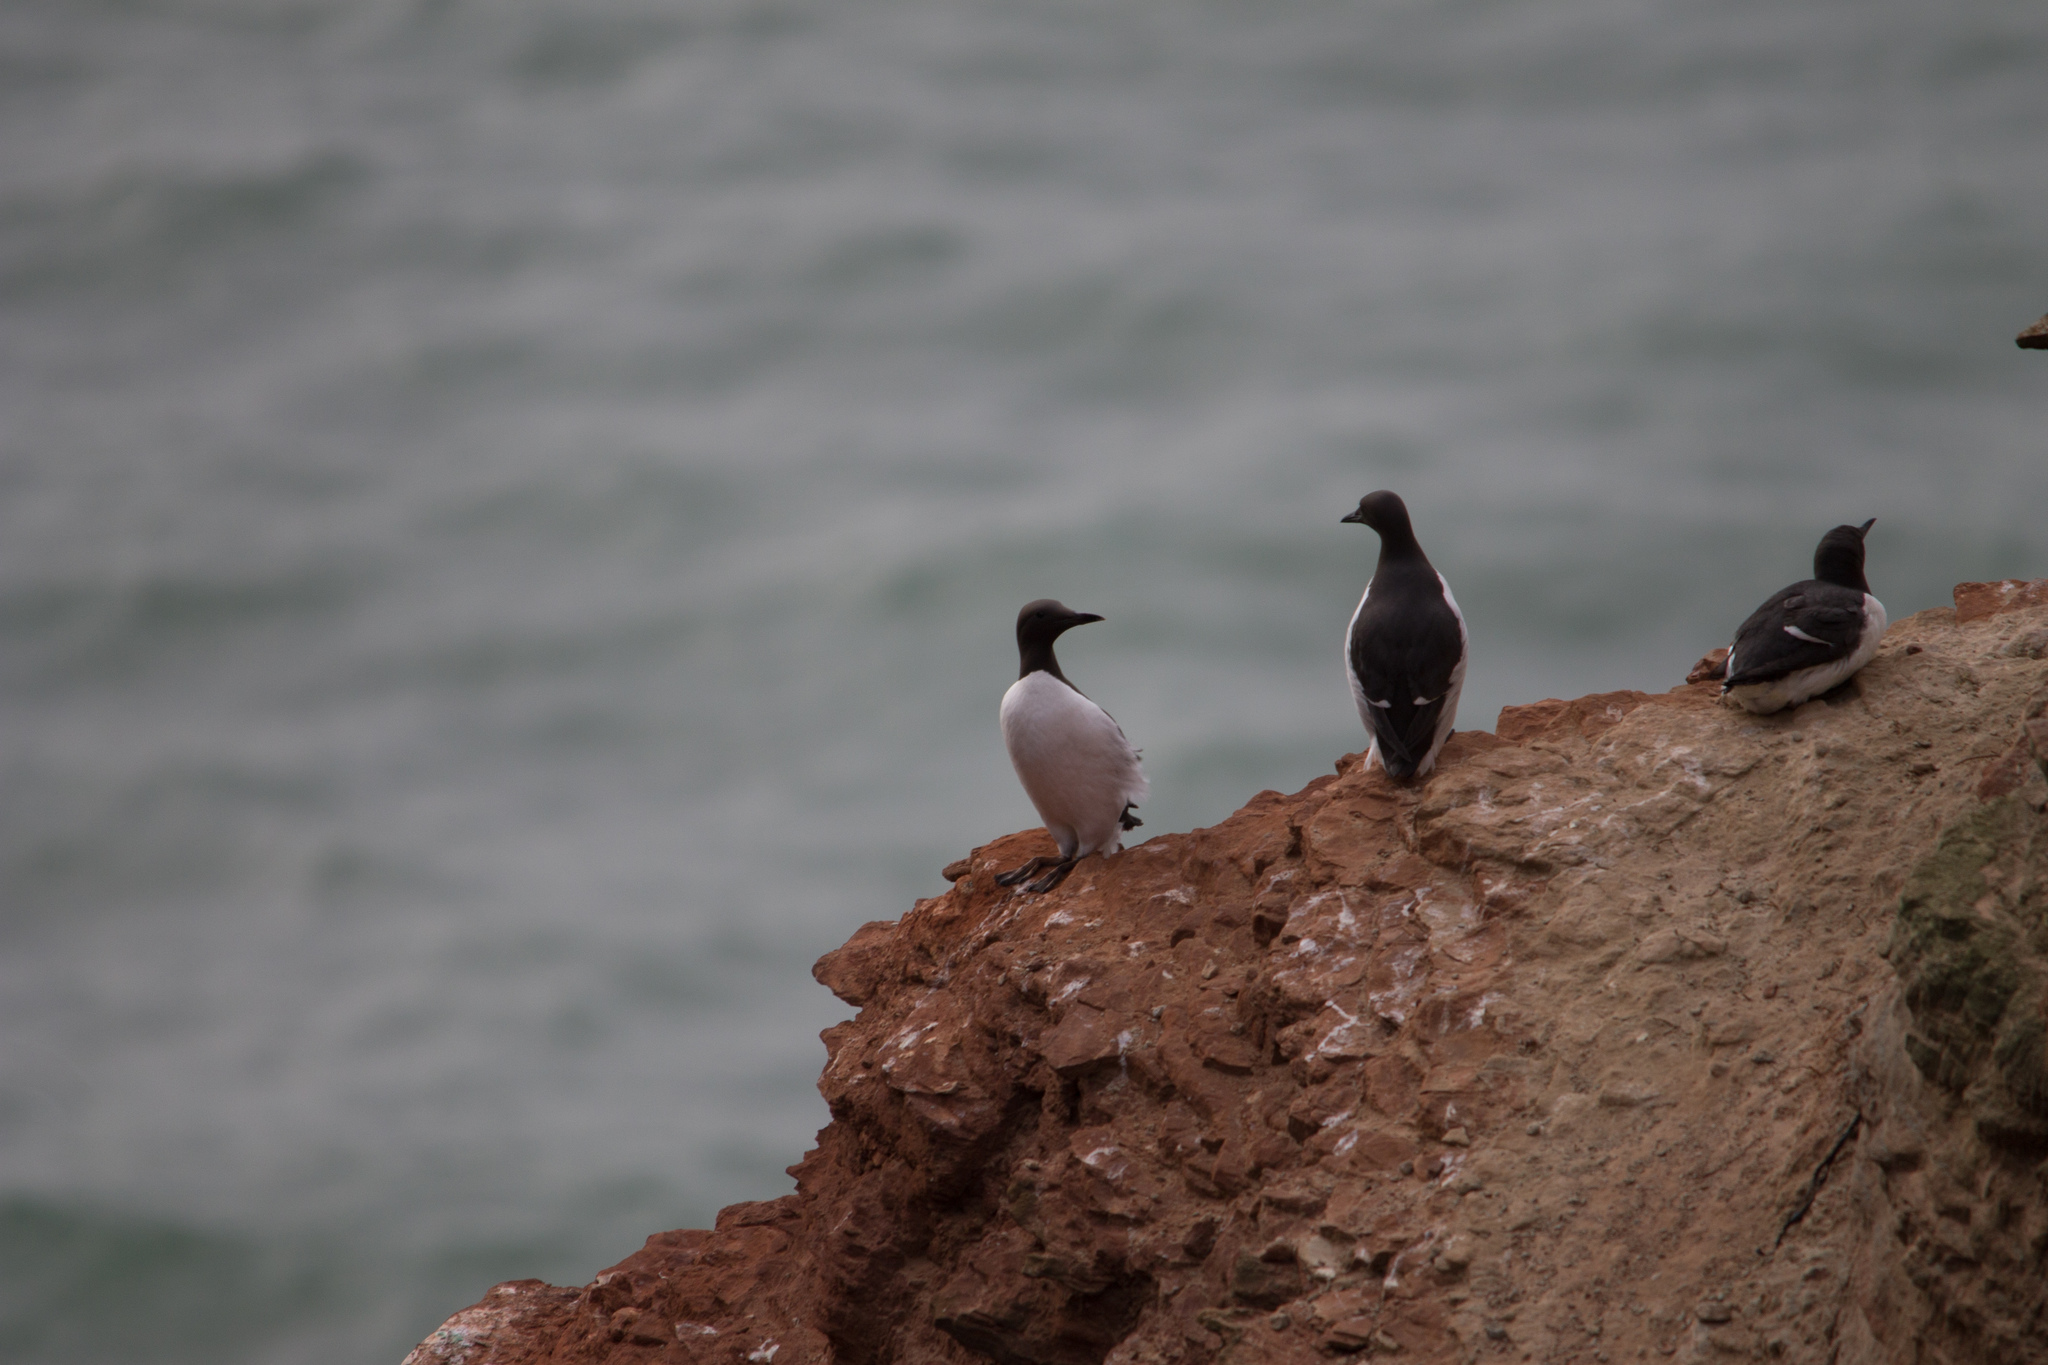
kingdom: Animalia
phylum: Chordata
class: Aves
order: Charadriiformes
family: Alcidae
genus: Uria
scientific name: Uria aalge
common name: Common murre
